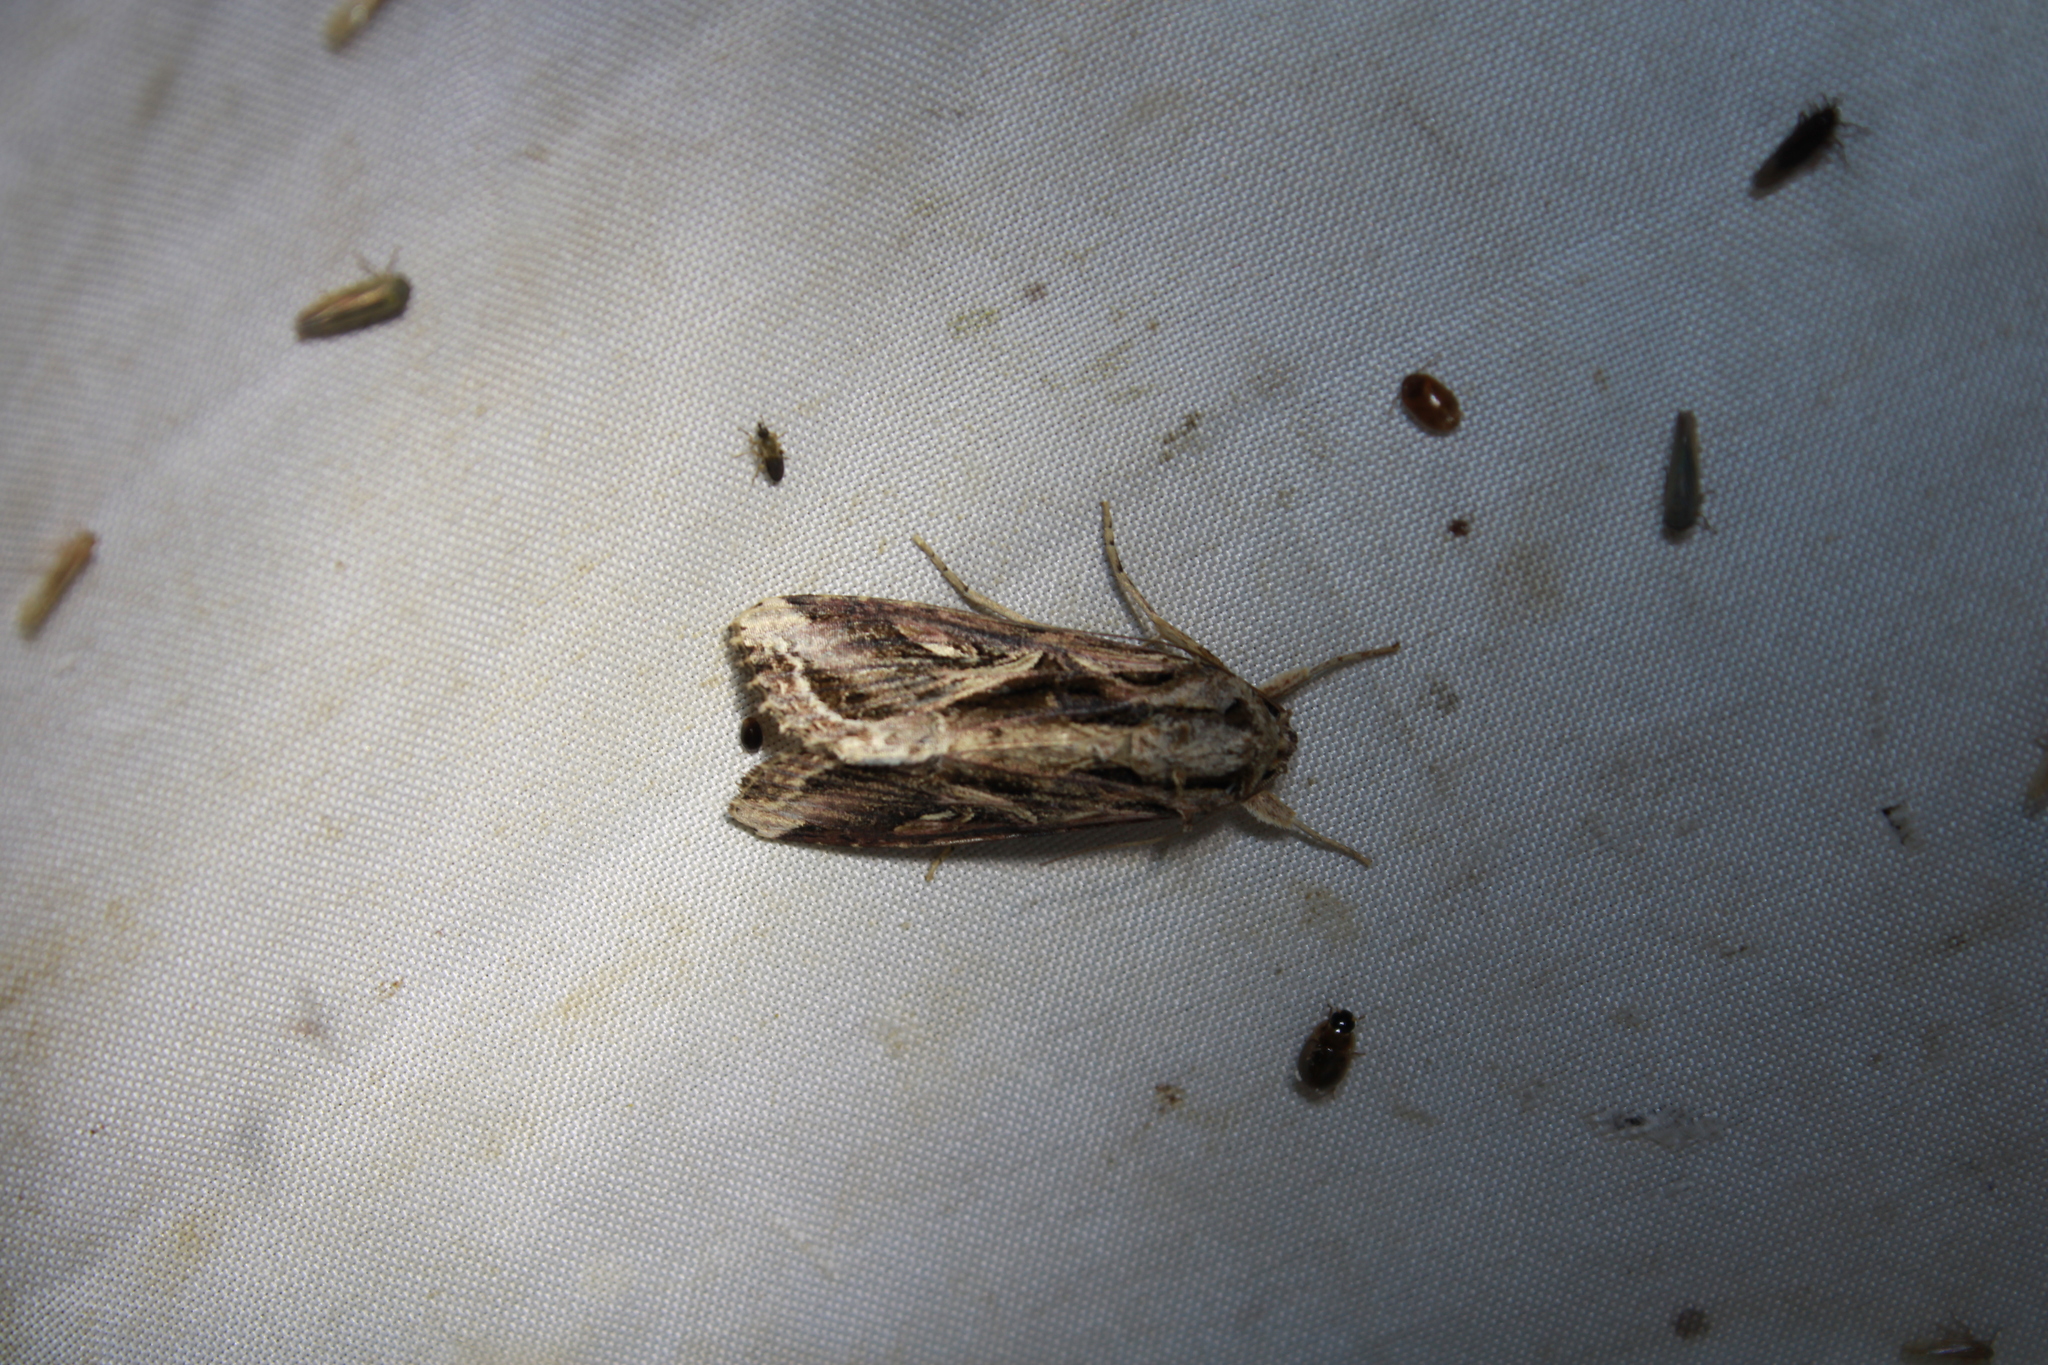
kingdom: Animalia
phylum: Arthropoda
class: Insecta
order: Lepidoptera
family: Noctuidae
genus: Spodoptera
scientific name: Spodoptera dolichos
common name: Sweetpotato armyworm
